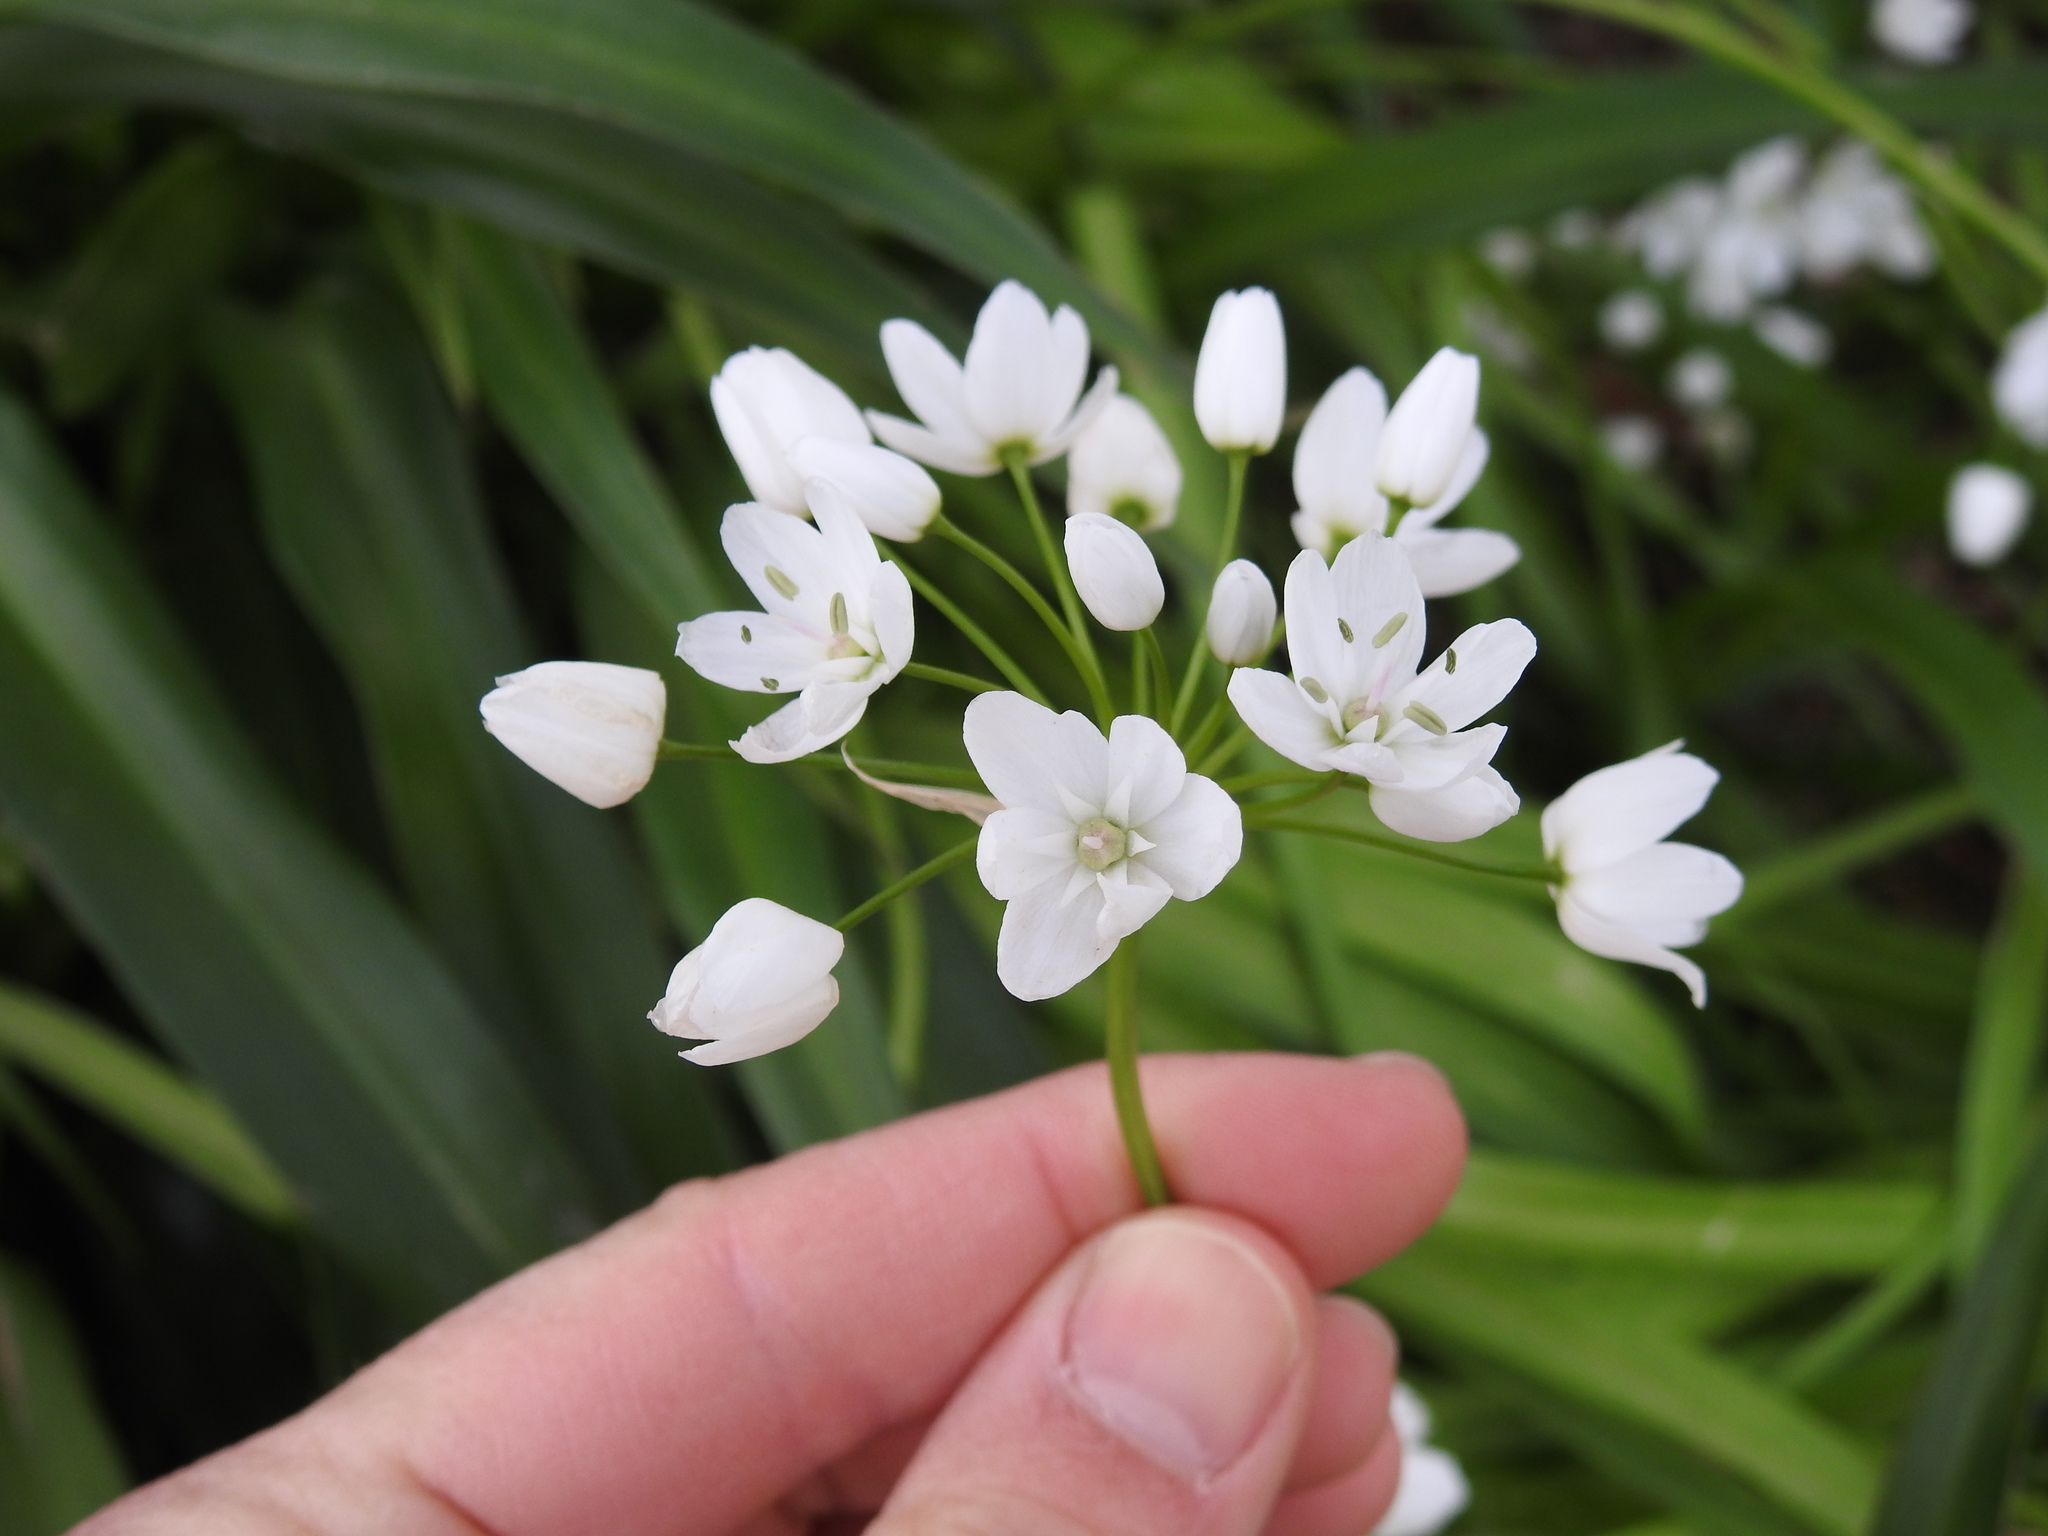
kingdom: Plantae
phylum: Tracheophyta
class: Liliopsida
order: Asparagales
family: Amaryllidaceae
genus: Allium
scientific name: Allium neapolitanum
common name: Neapolitan garlic
